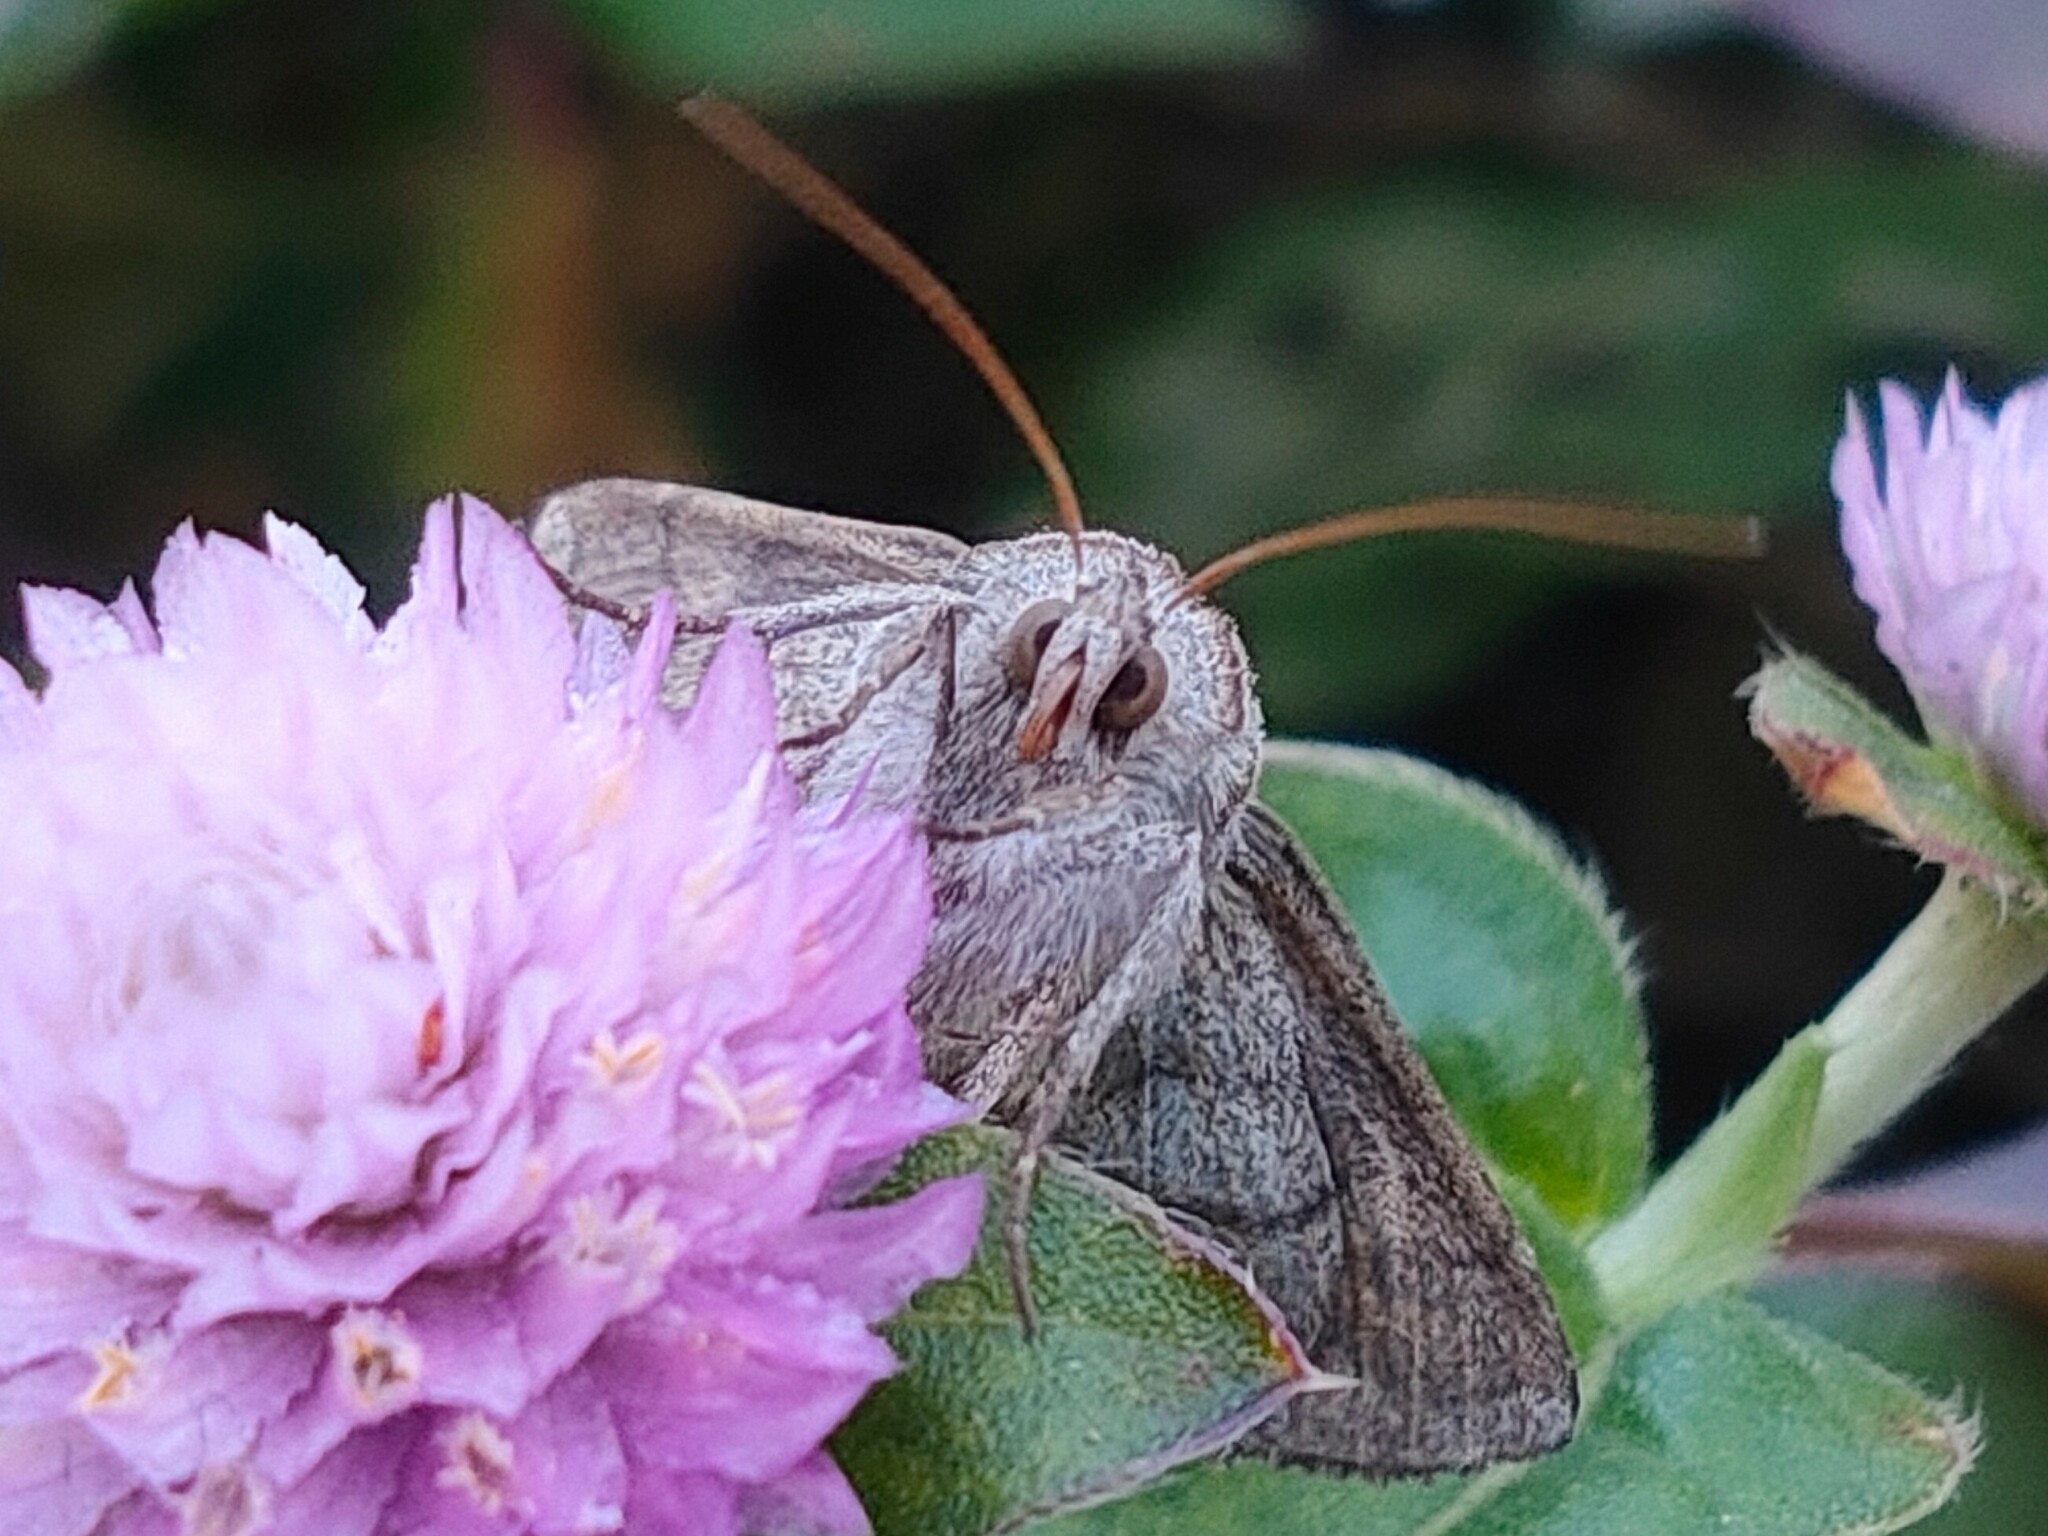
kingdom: Animalia
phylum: Arthropoda
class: Insecta
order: Lepidoptera
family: Noctuidae
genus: Macdunnoughia
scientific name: Macdunnoughia purissima
